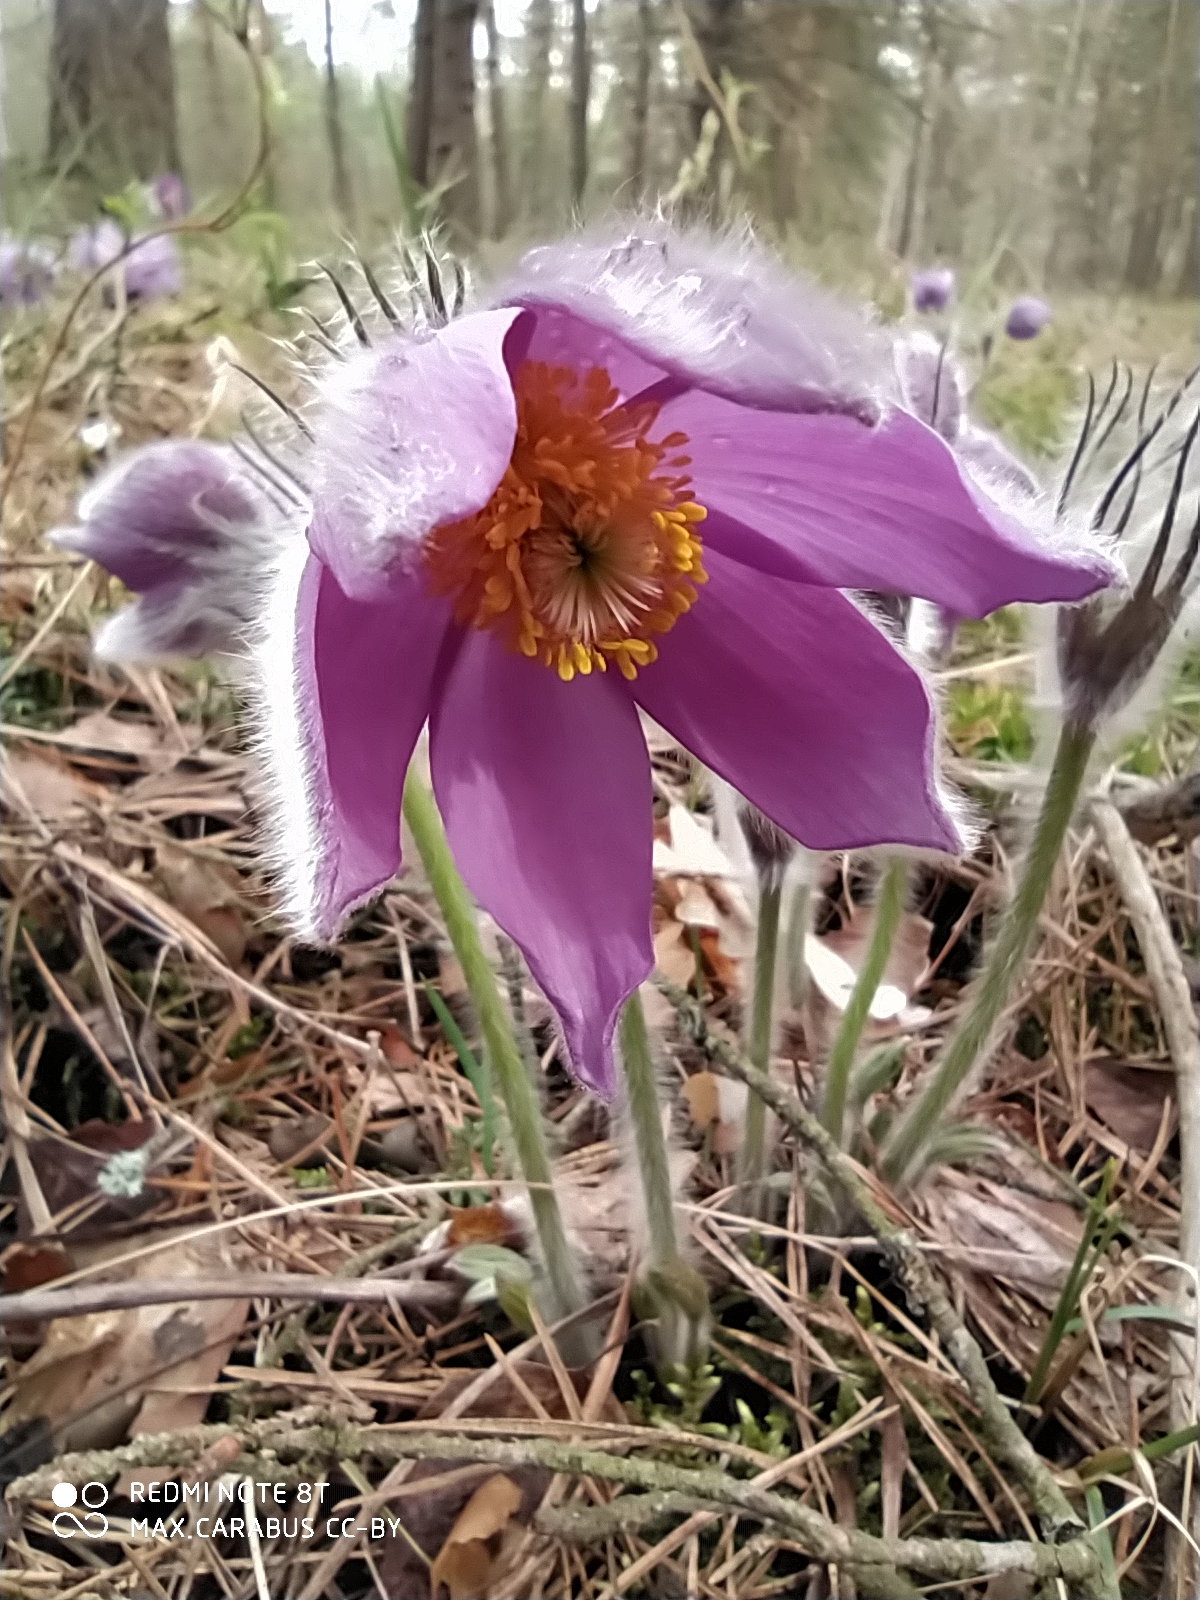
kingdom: Plantae
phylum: Tracheophyta
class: Magnoliopsida
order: Ranunculales
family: Ranunculaceae
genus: Pulsatilla
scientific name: Pulsatilla patens
